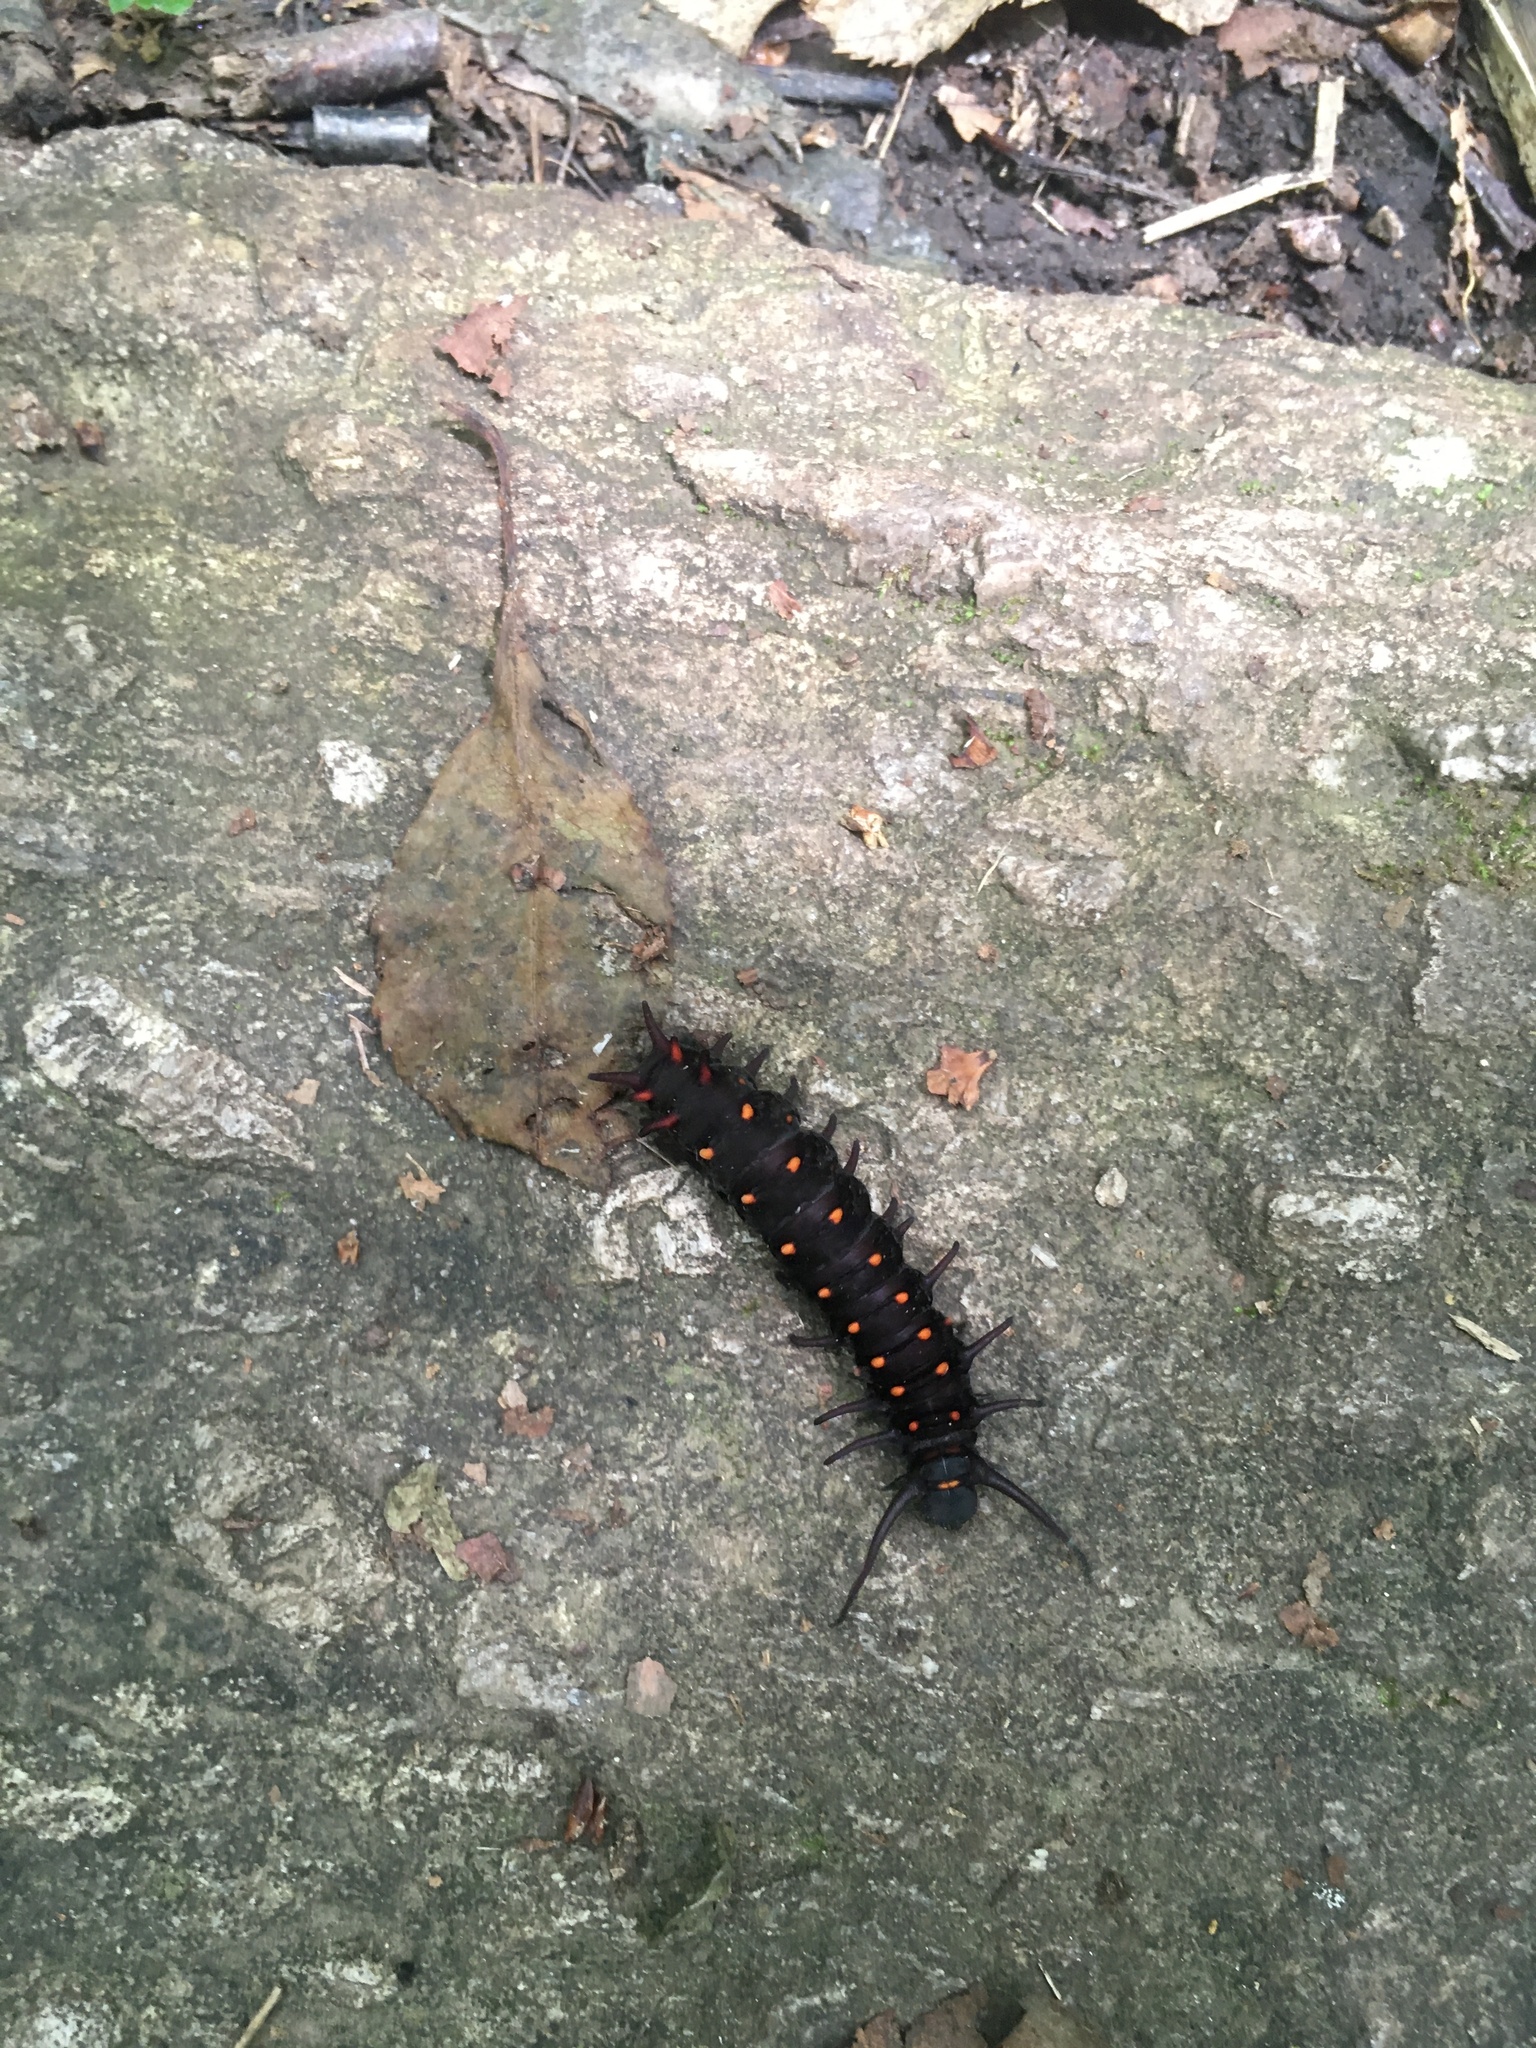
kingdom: Animalia
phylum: Arthropoda
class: Insecta
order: Lepidoptera
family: Papilionidae
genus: Battus
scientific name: Battus philenor
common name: Pipevine swallowtail
